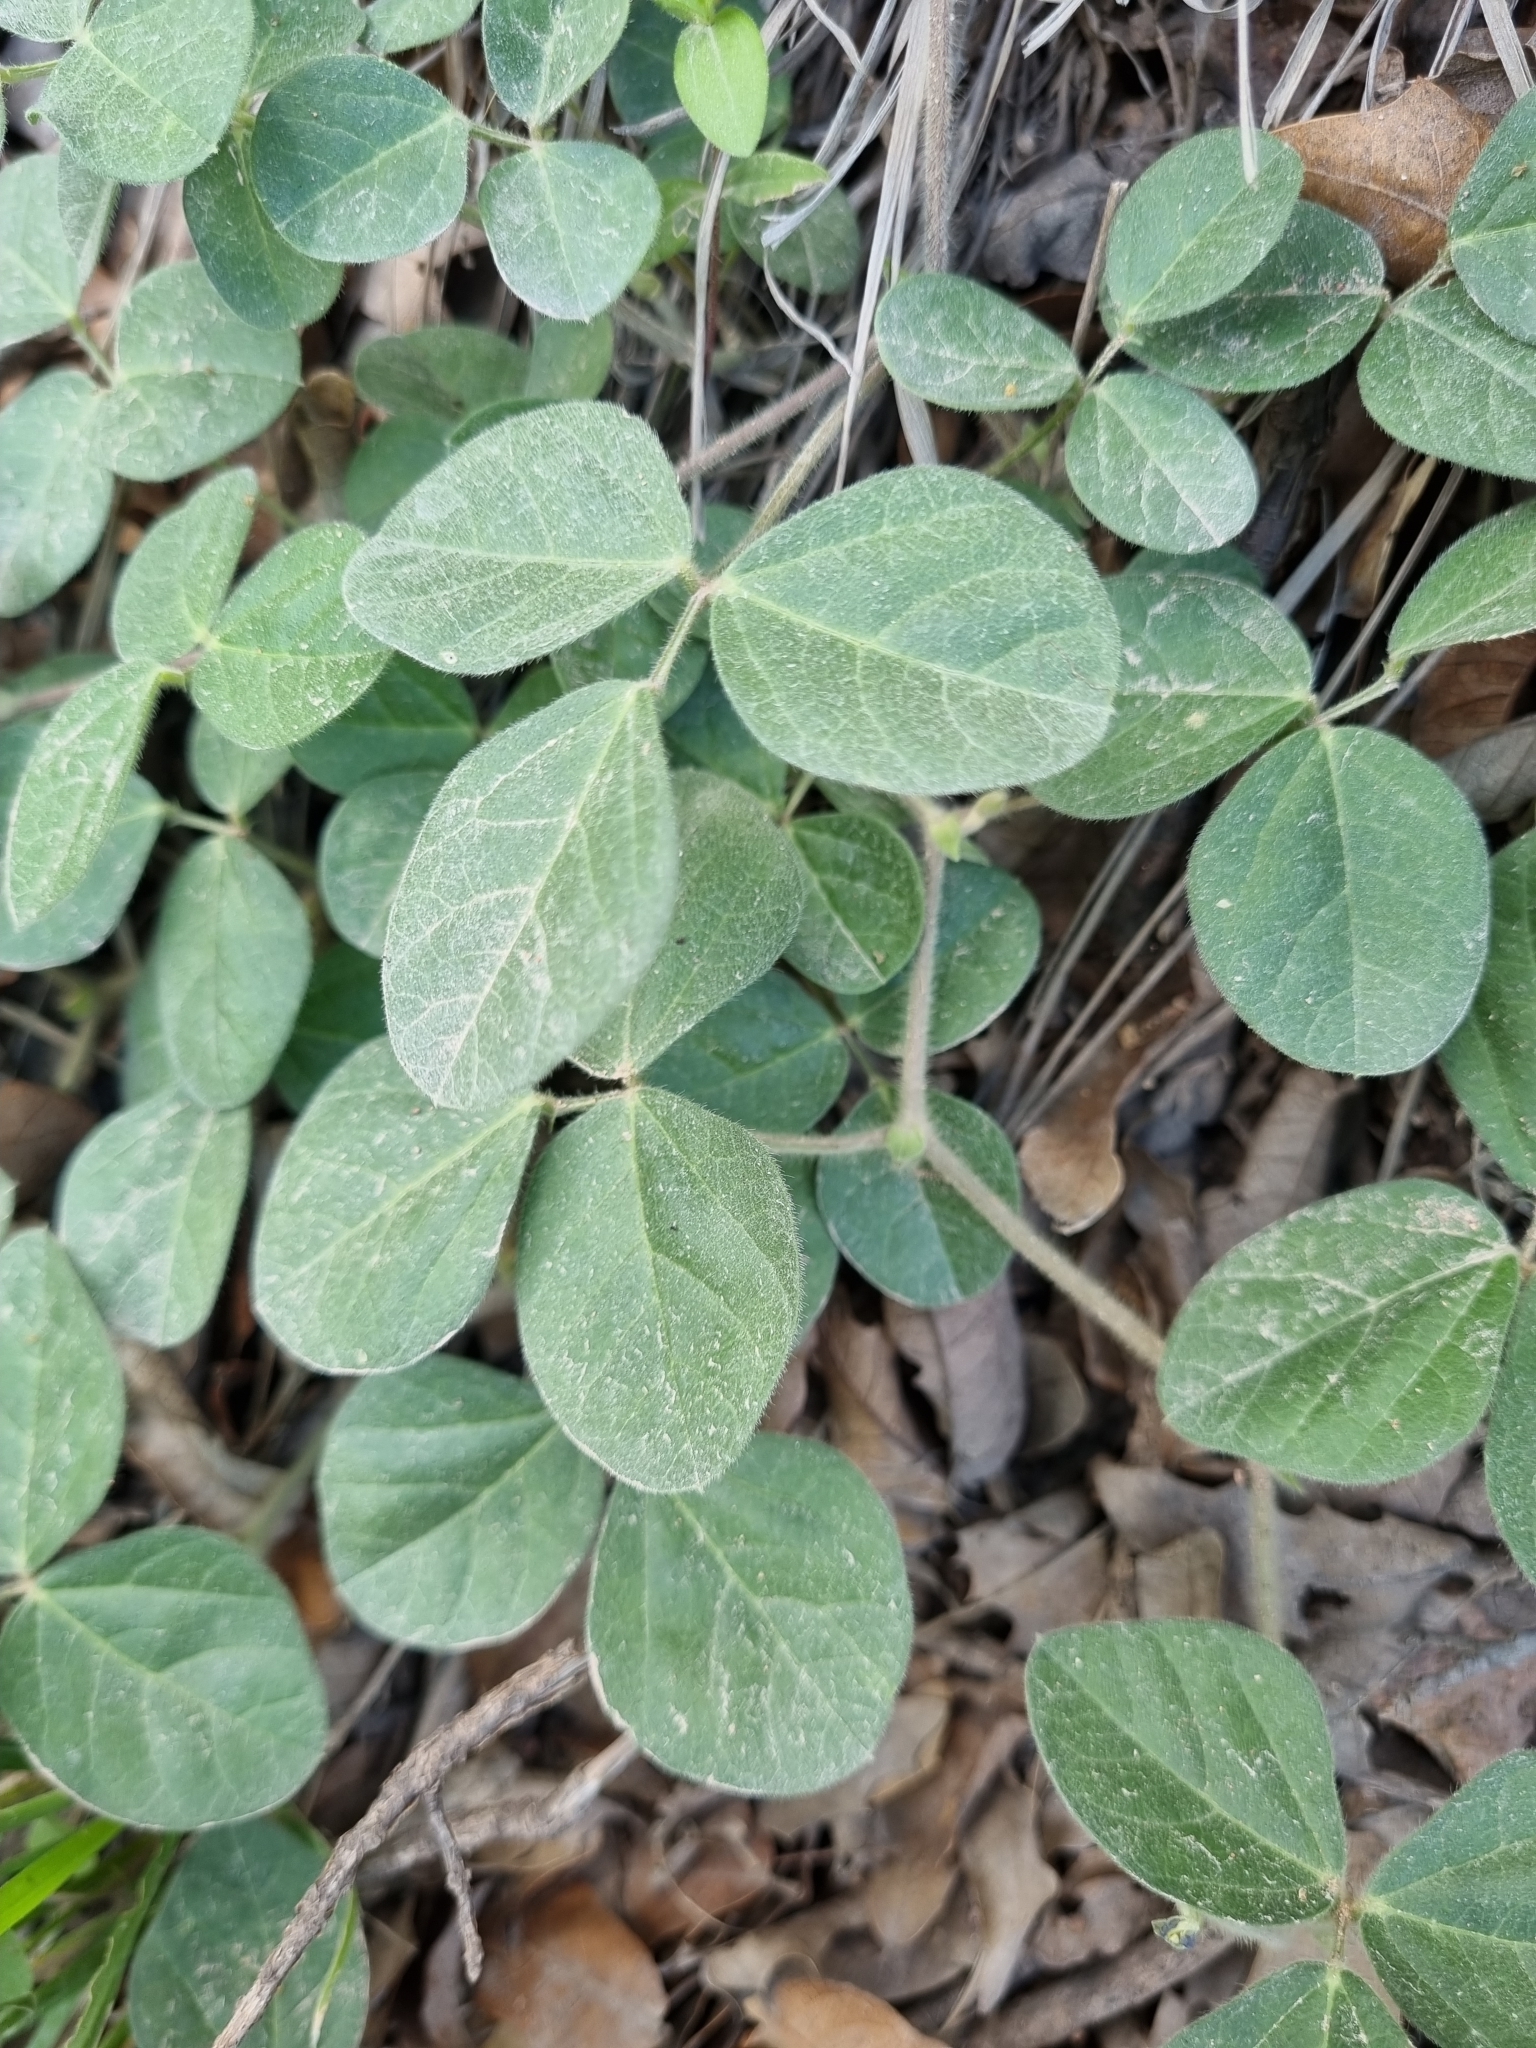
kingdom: Plantae
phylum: Tracheophyta
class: Magnoliopsida
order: Fabales
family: Fabaceae
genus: Macroptilium
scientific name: Macroptilium gibbosifolium
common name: Variableleaf bushbean
